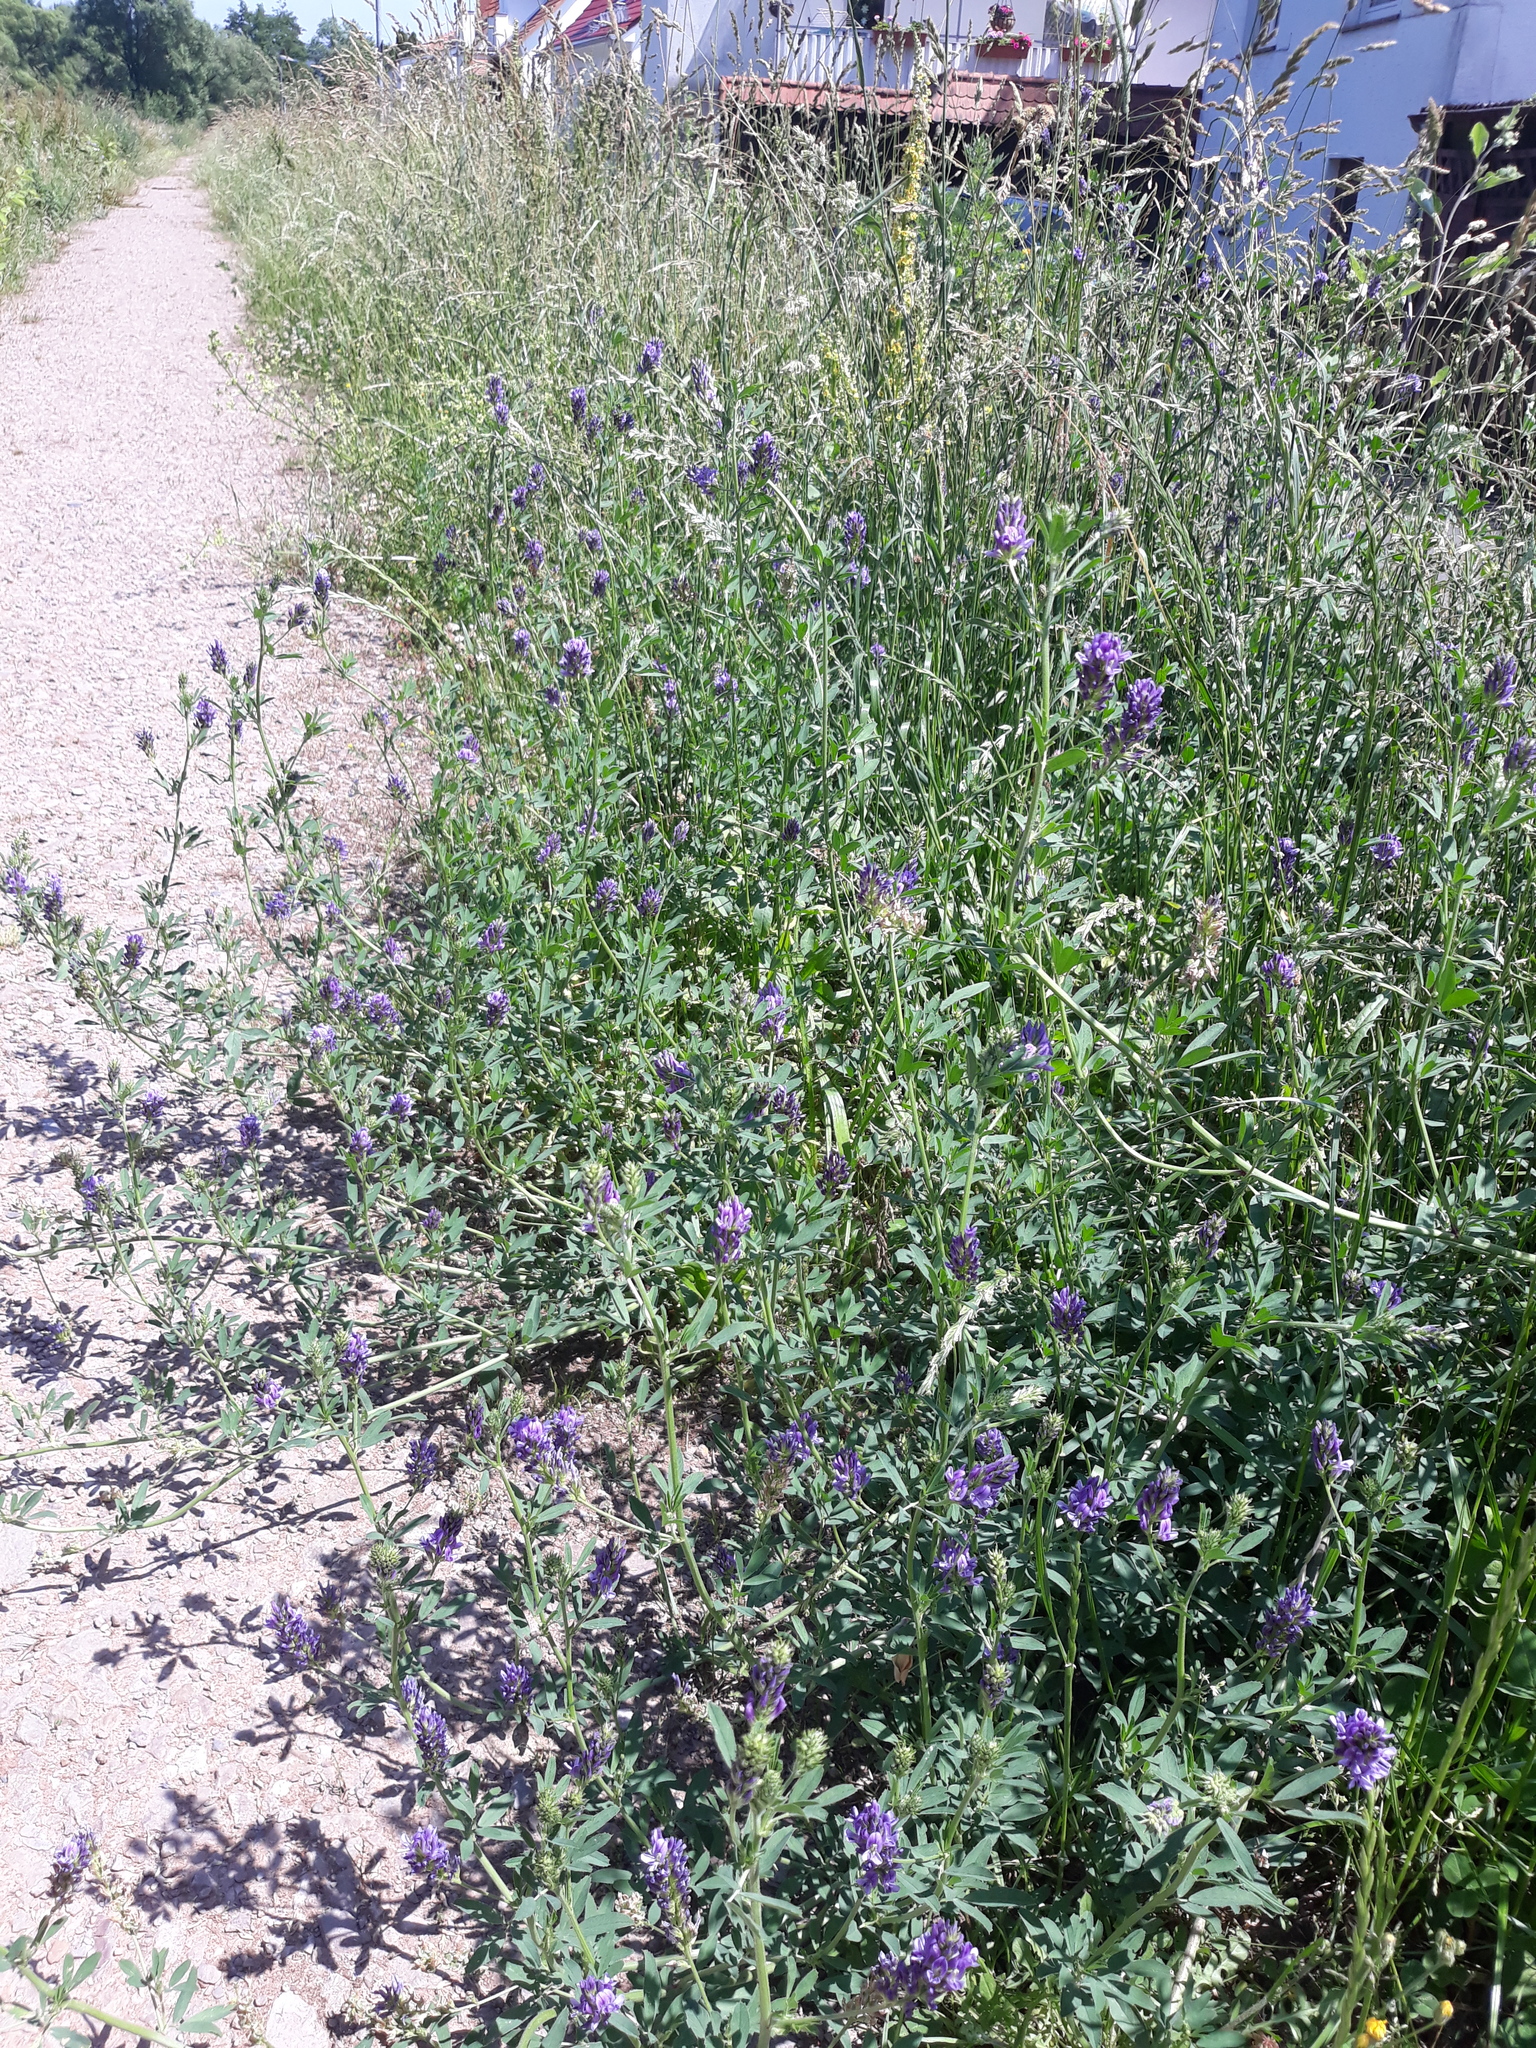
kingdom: Plantae
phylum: Tracheophyta
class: Magnoliopsida
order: Fabales
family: Fabaceae
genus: Medicago
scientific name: Medicago sativa
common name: Alfalfa
